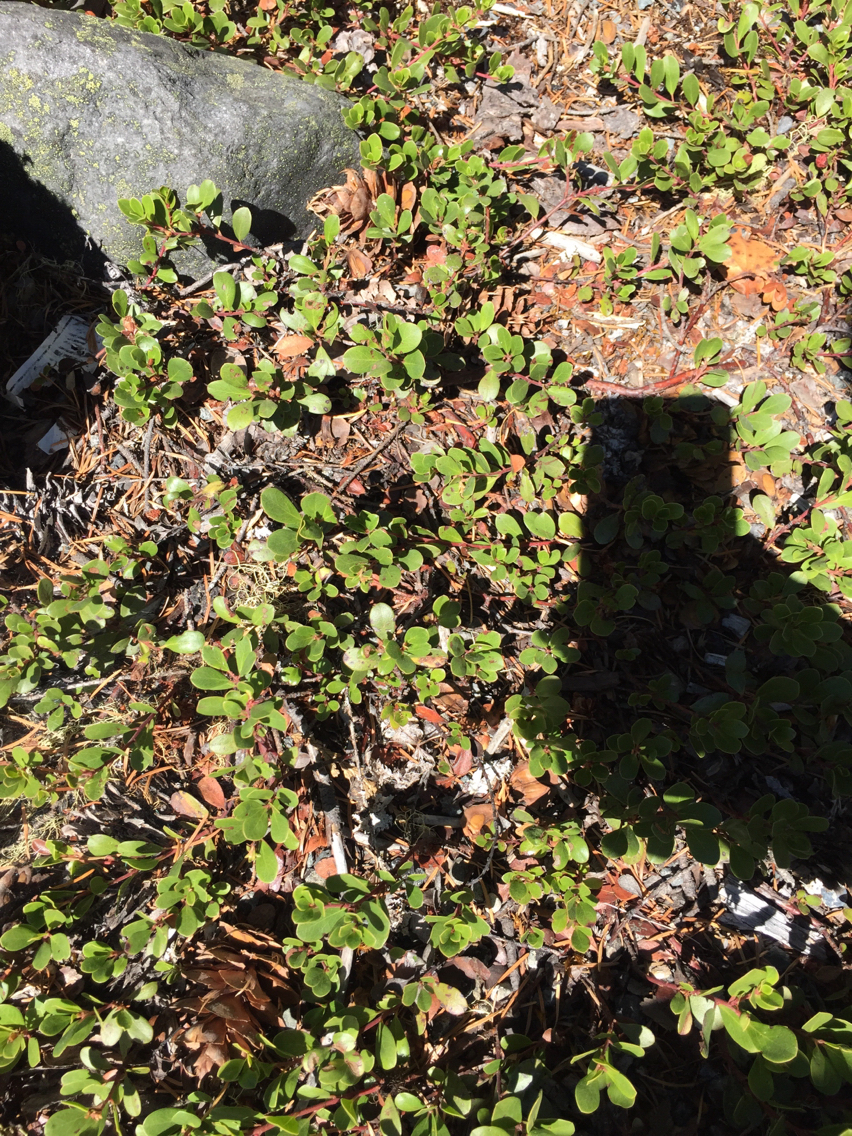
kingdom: Plantae
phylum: Tracheophyta
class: Magnoliopsida
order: Ericales
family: Ericaceae
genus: Arctostaphylos
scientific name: Arctostaphylos uva-ursi
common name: Bearberry
